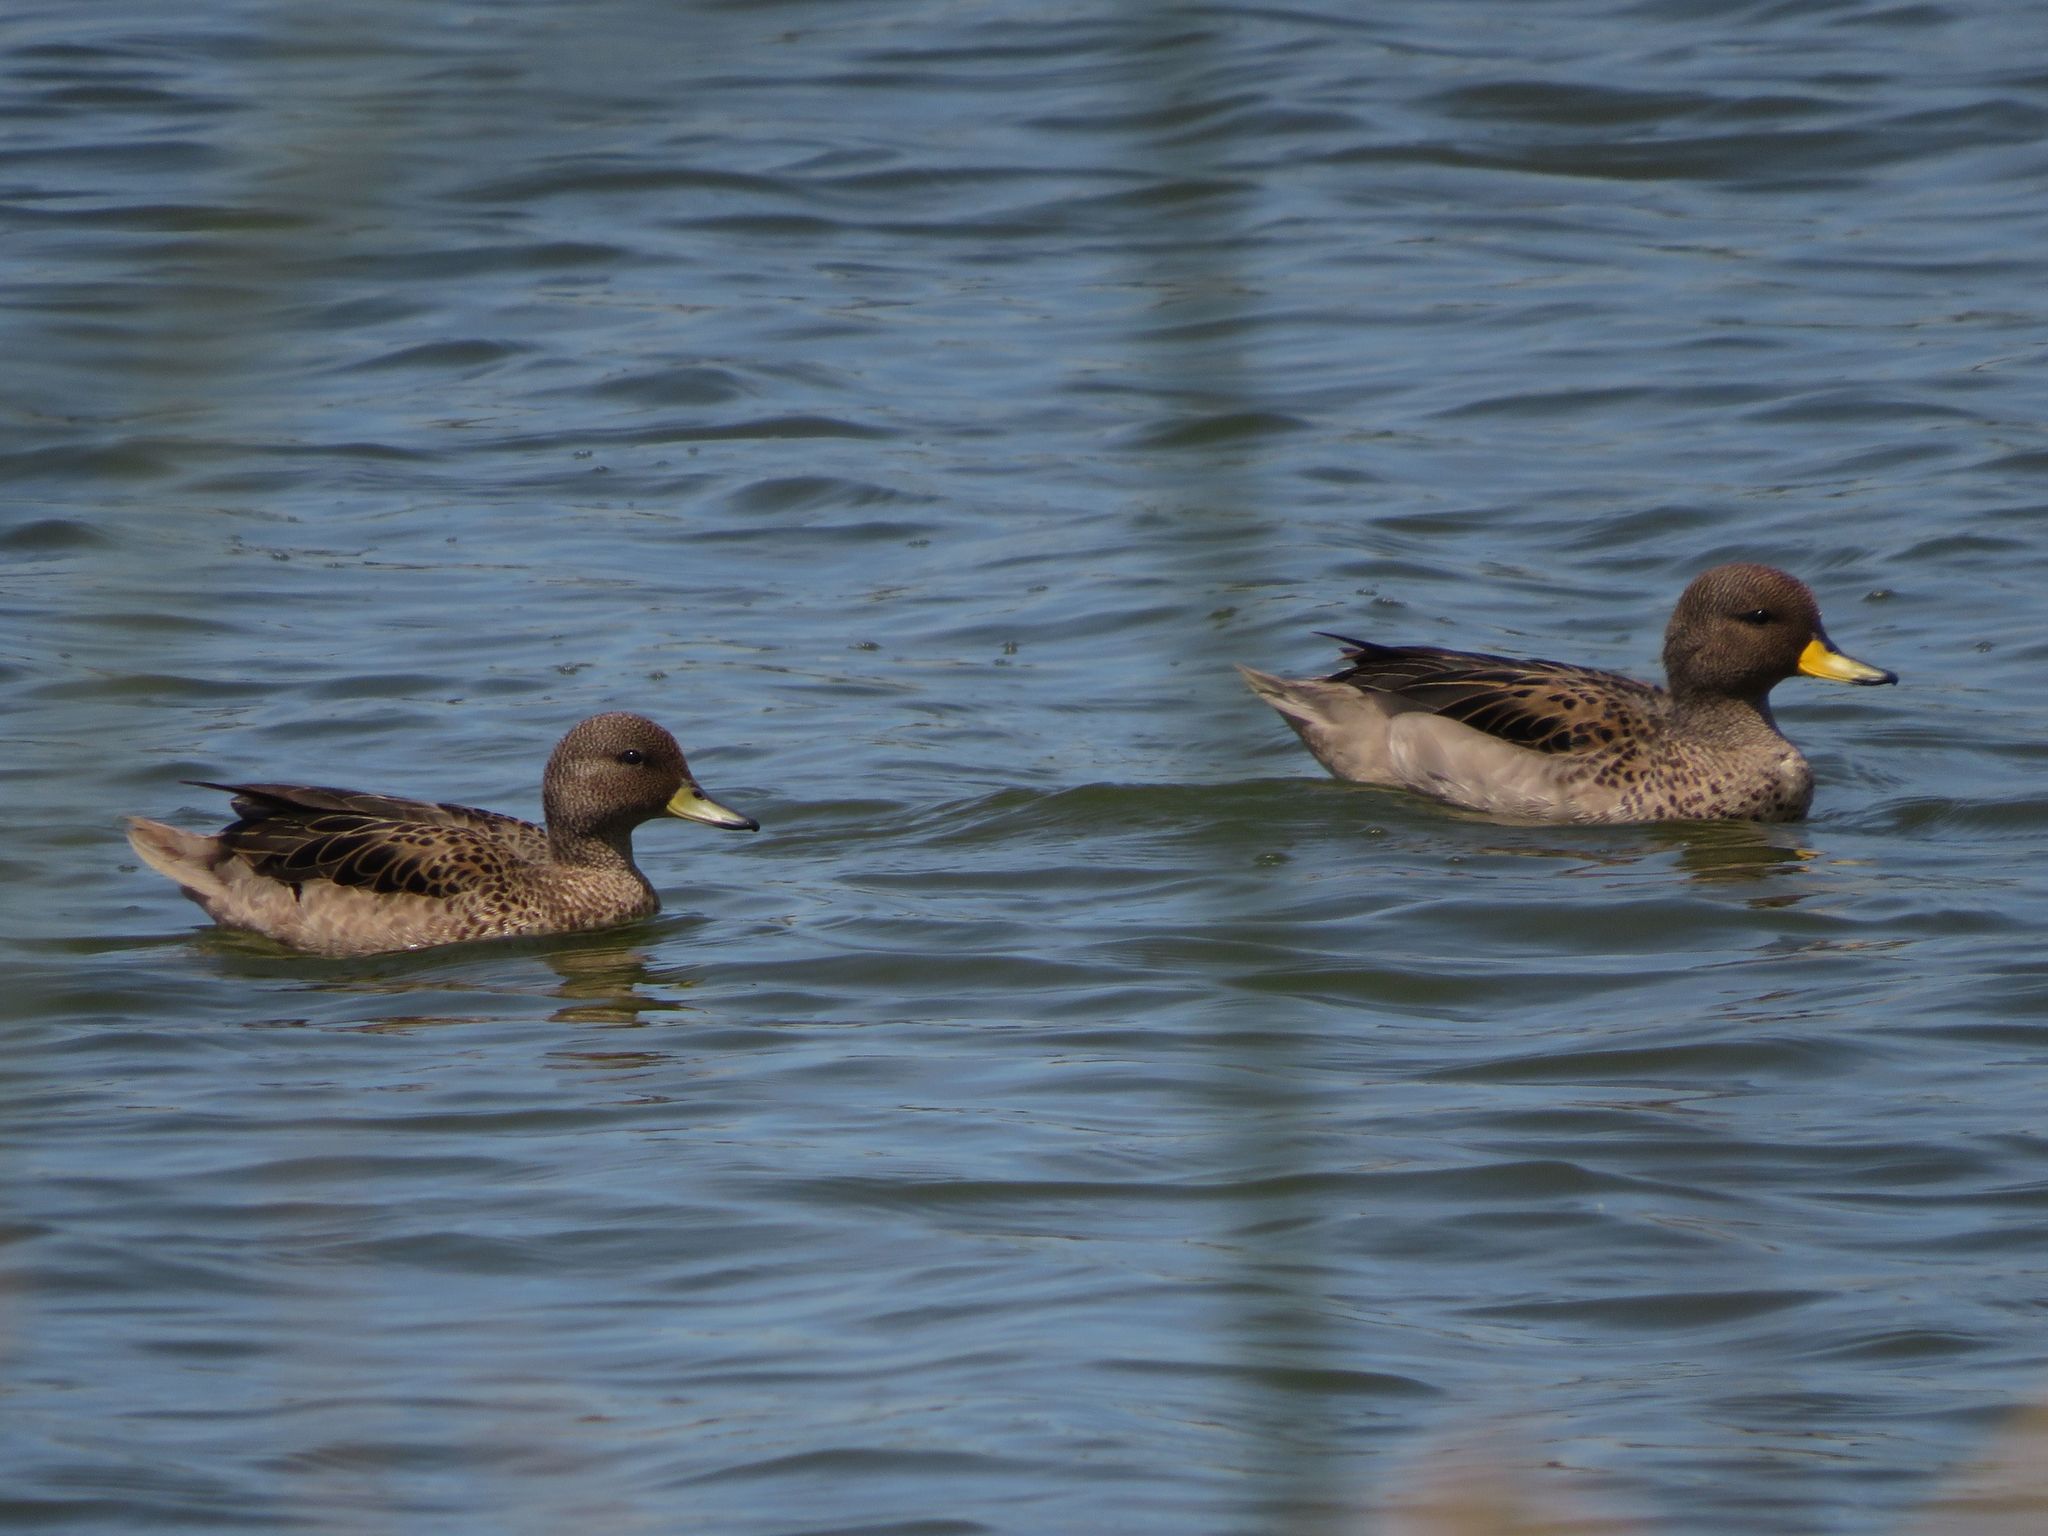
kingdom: Animalia
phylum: Chordata
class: Aves
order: Anseriformes
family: Anatidae
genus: Anas
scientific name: Anas flavirostris
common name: Yellow-billed teal
